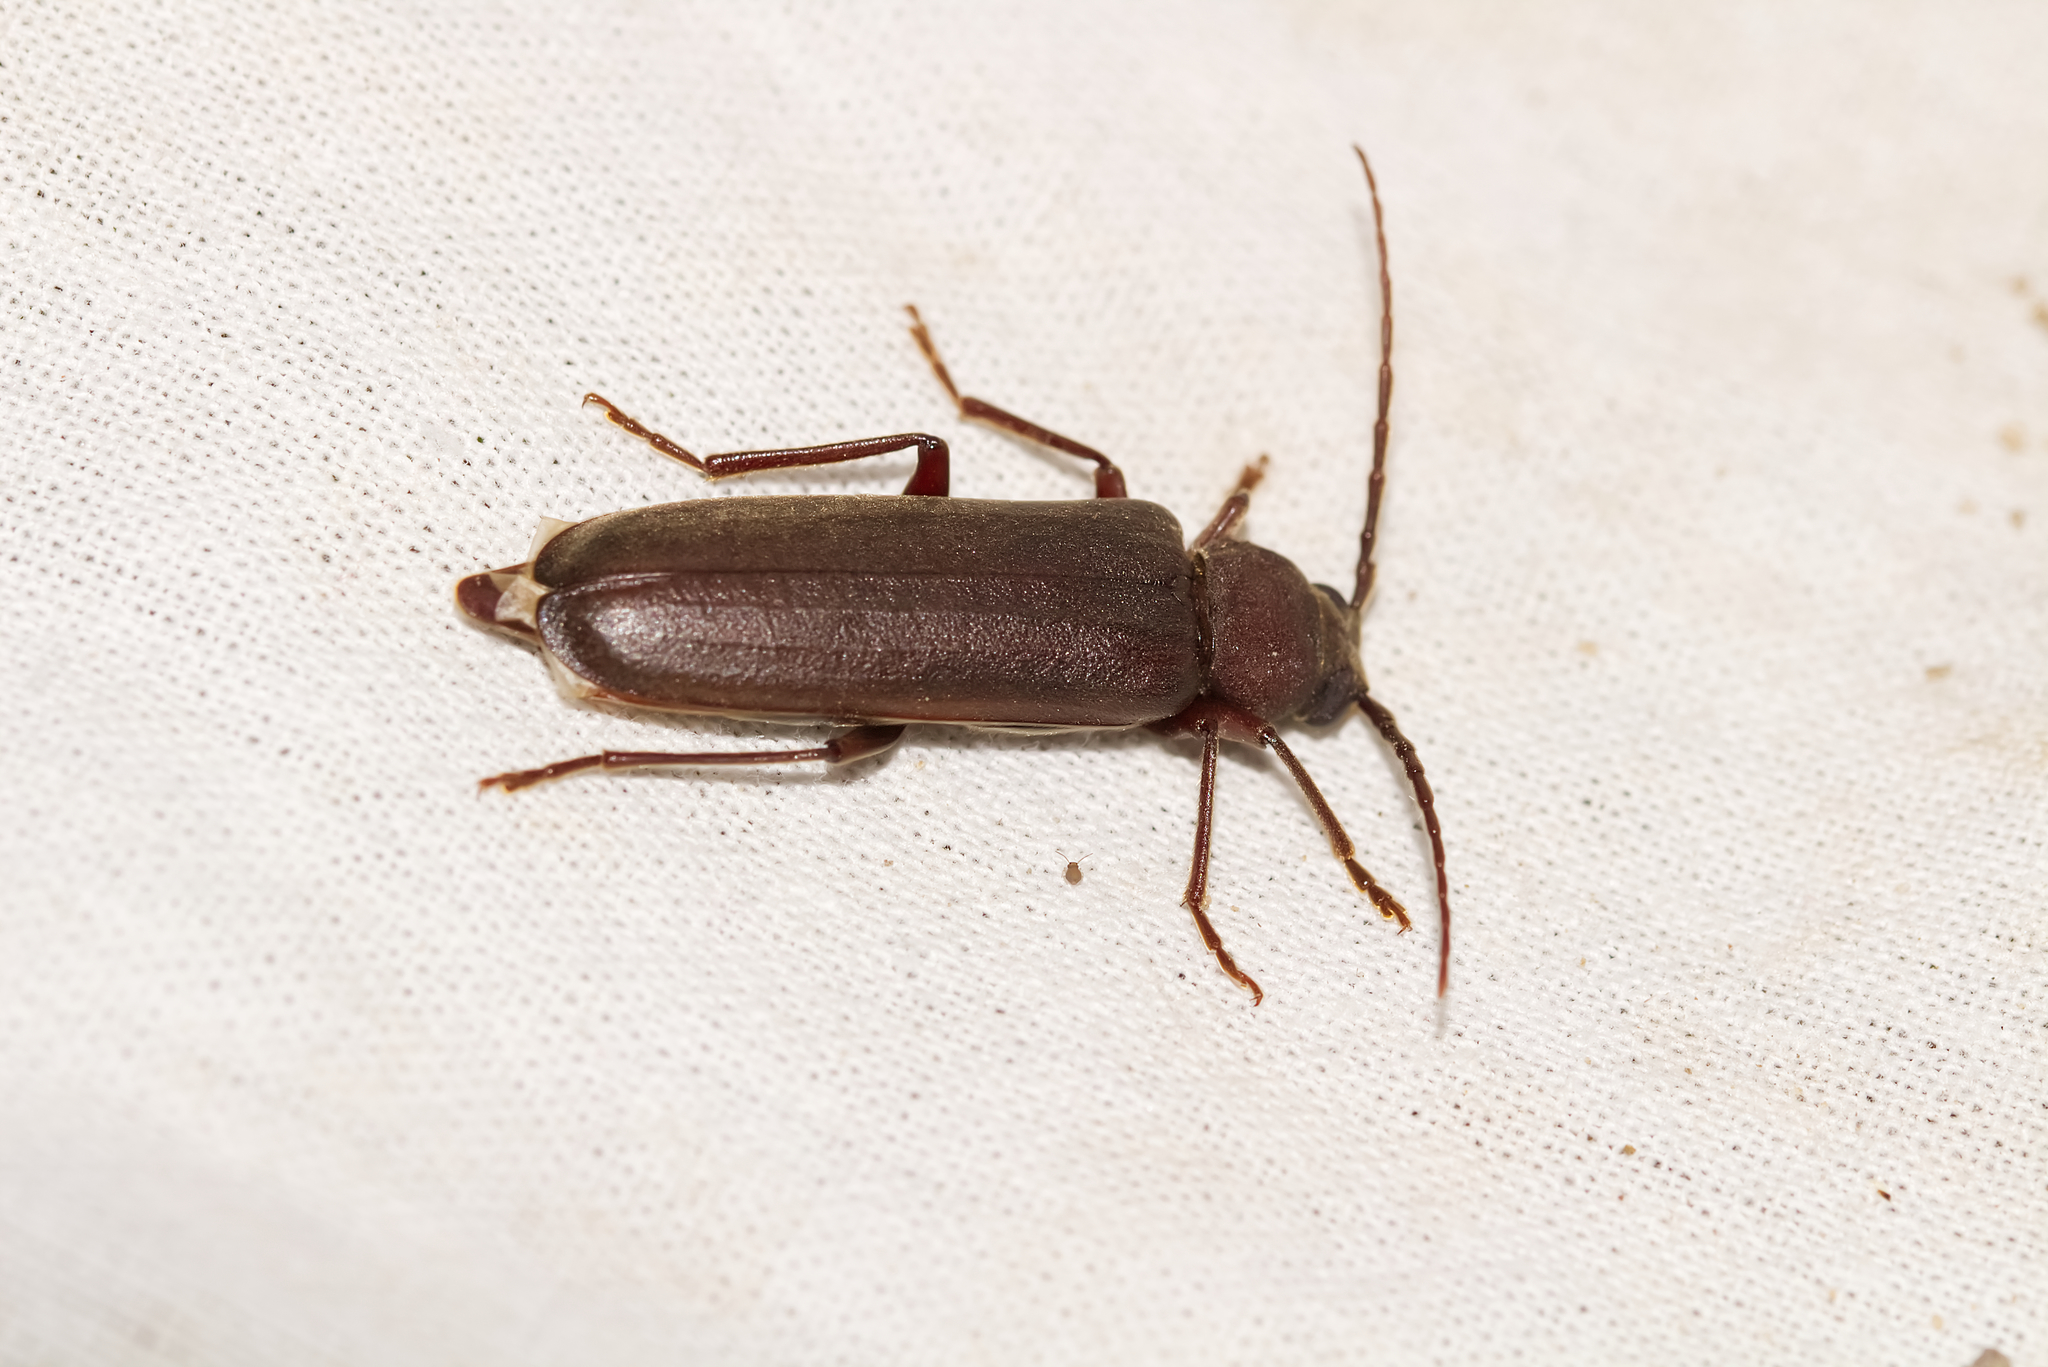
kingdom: Animalia
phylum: Arthropoda
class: Insecta
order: Coleoptera
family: Cerambycidae
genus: Arhopalus
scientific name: Arhopalus rusticus
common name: Rust pine borer
